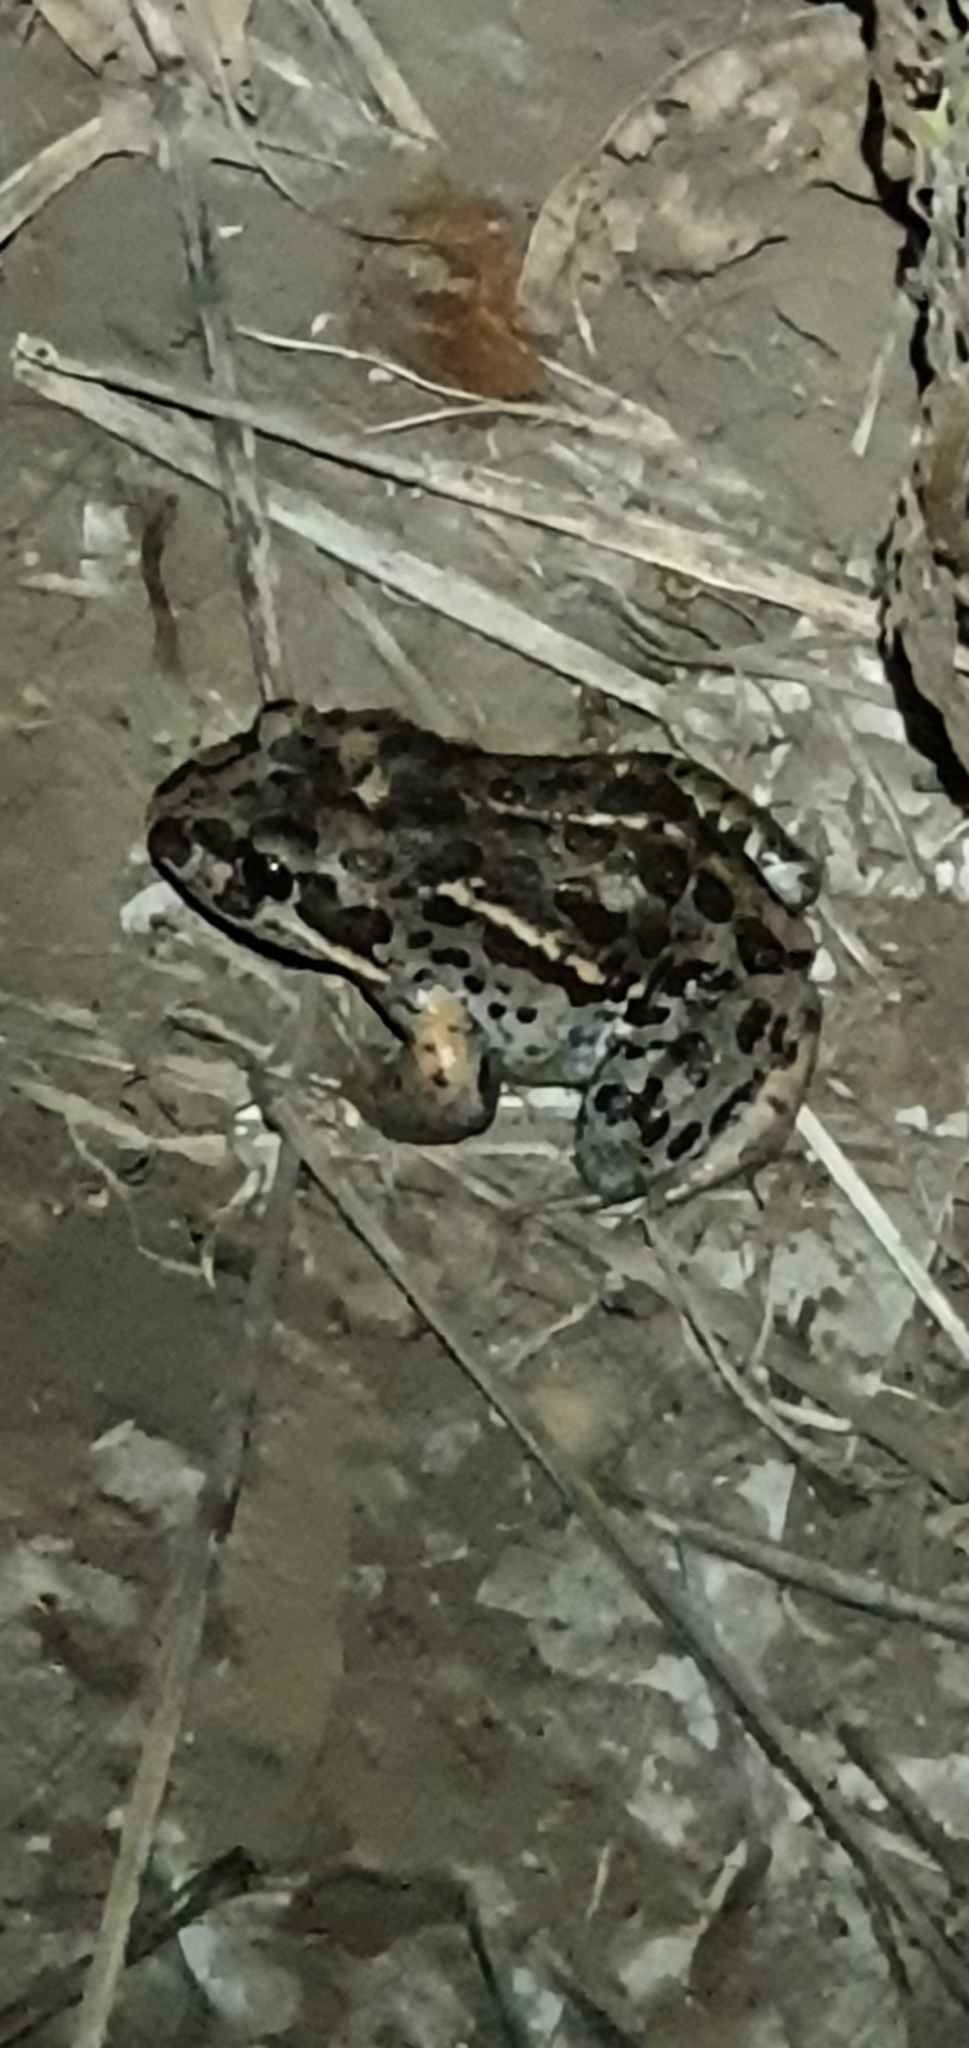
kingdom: Animalia
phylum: Chordata
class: Amphibia
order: Anura
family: Limnodynastidae
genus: Limnodynastes
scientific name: Limnodynastes salmini
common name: Salmon-striped frog
